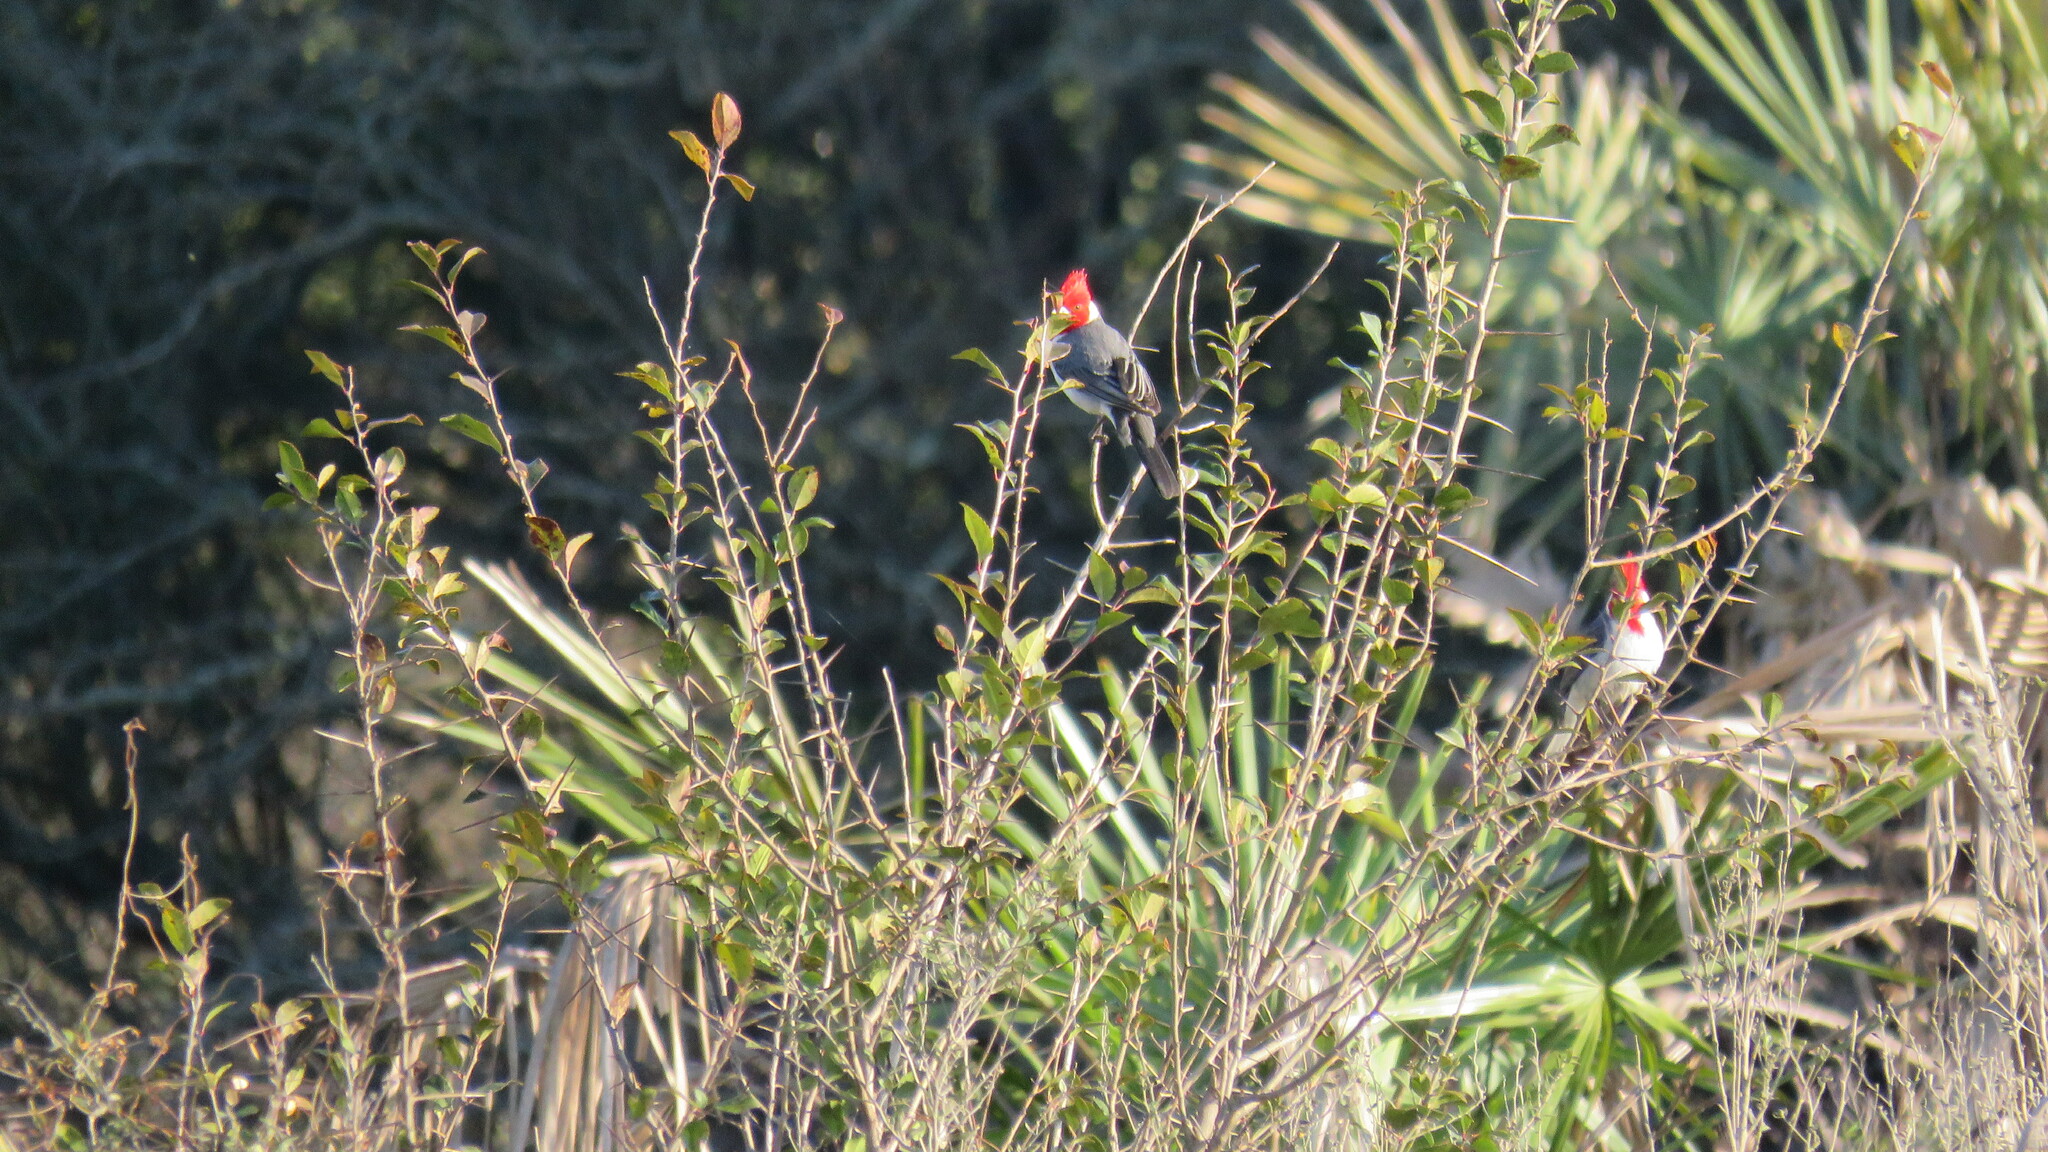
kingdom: Animalia
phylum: Chordata
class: Aves
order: Passeriformes
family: Thraupidae
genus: Paroaria
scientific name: Paroaria coronata
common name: Red-crested cardinal
